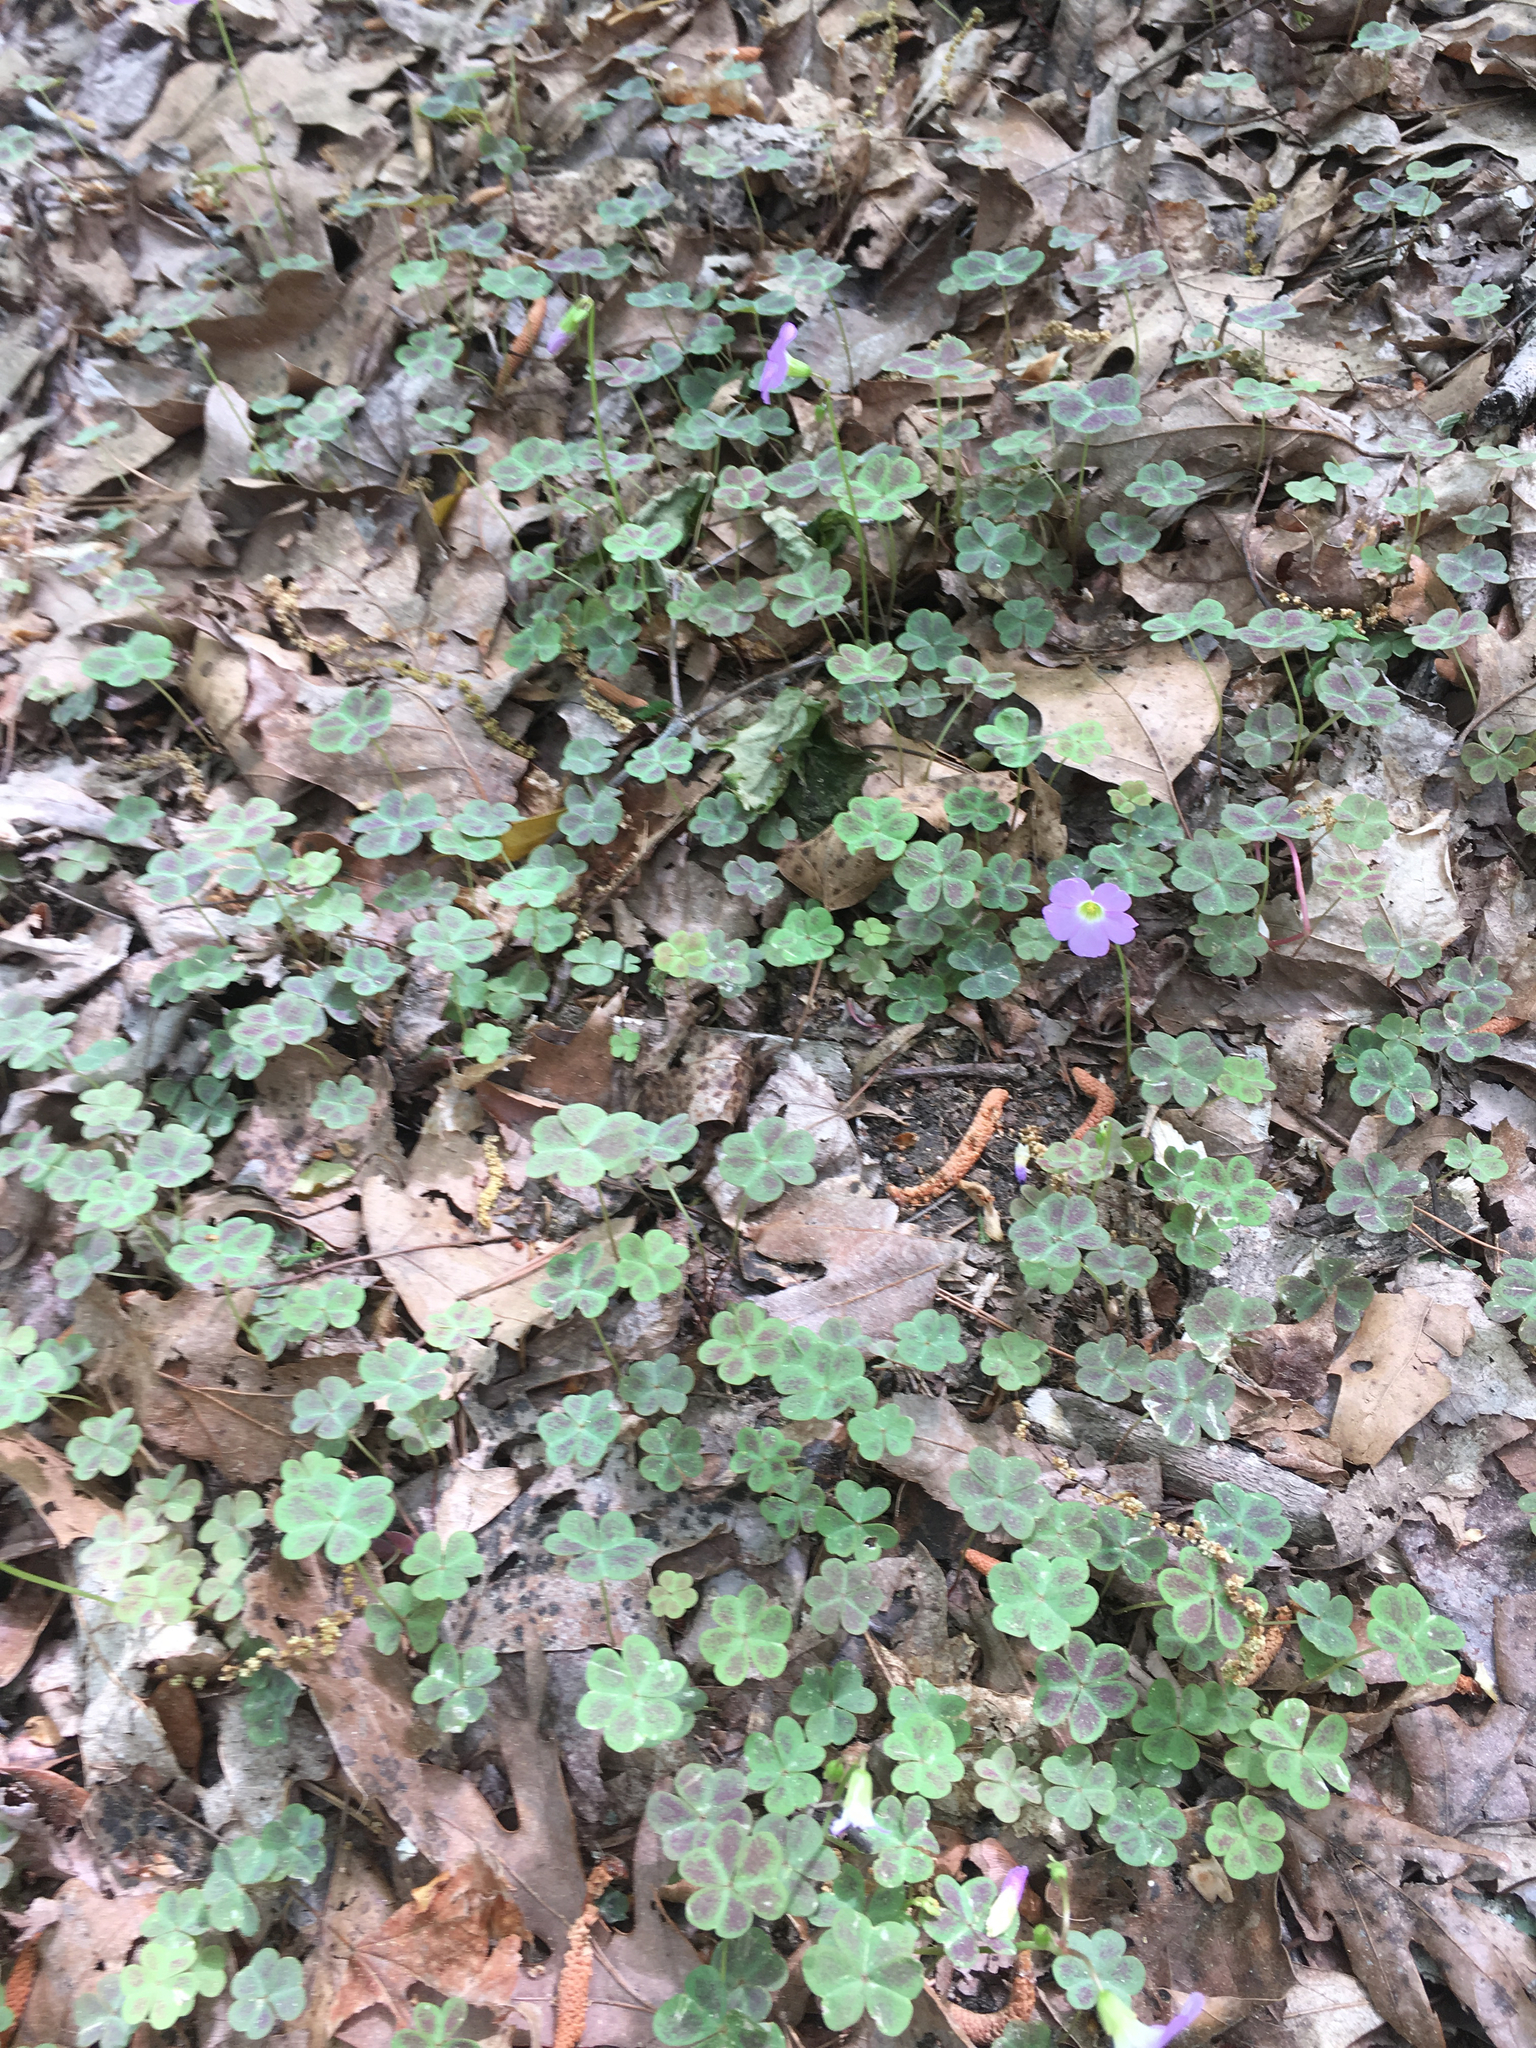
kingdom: Plantae
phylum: Tracheophyta
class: Magnoliopsida
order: Oxalidales
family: Oxalidaceae
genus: Oxalis
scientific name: Oxalis violacea
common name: Violet wood-sorrel
